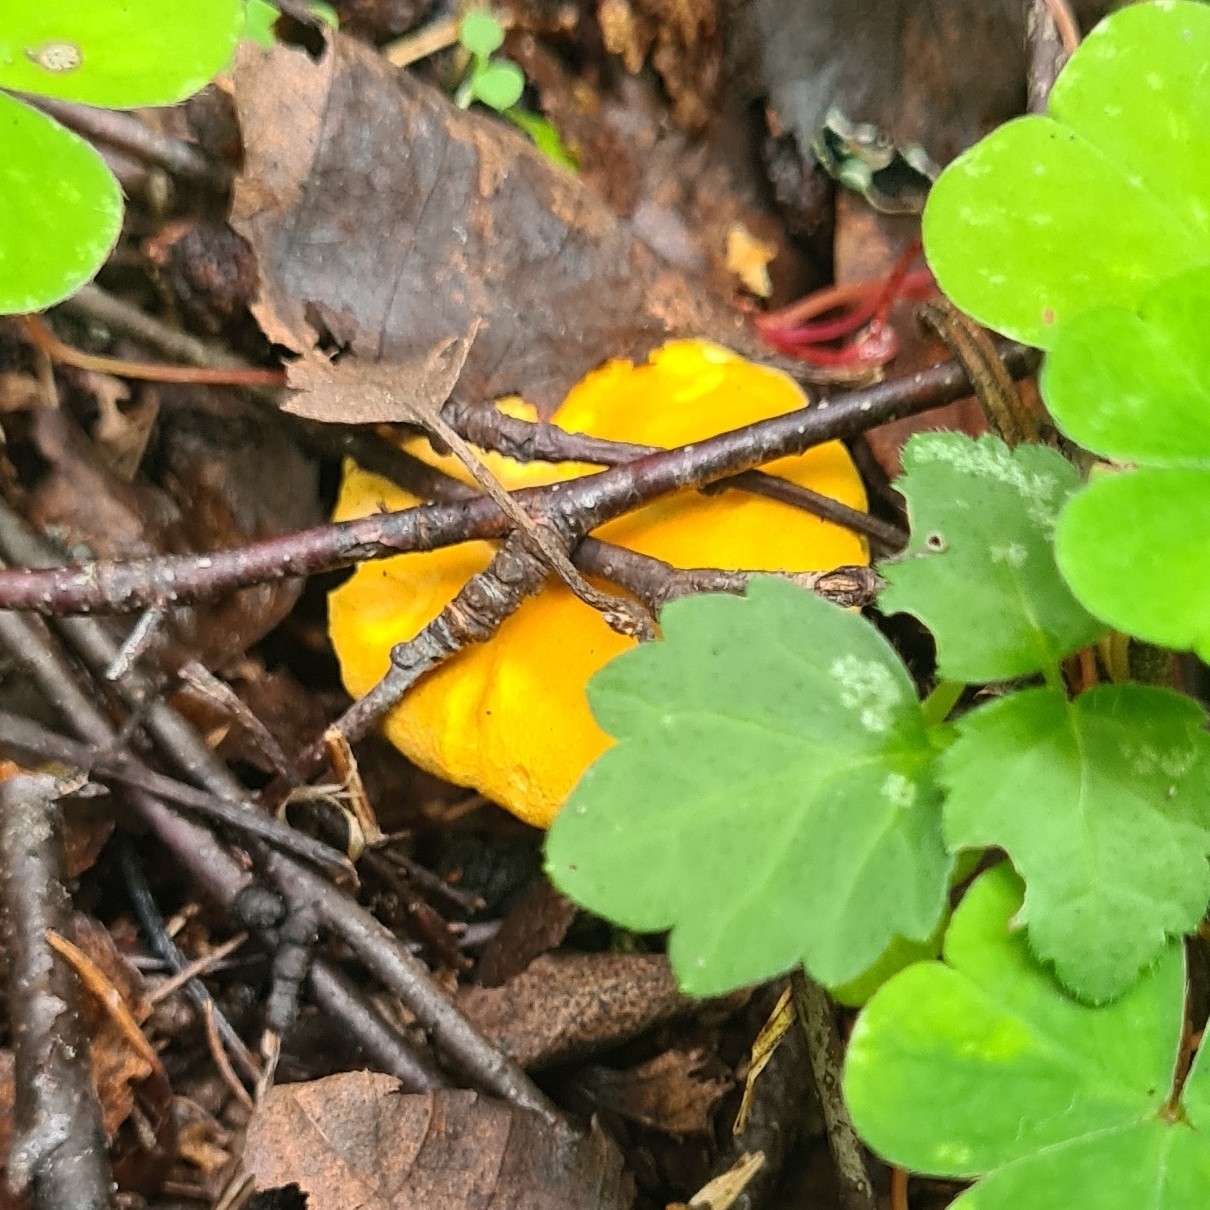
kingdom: Fungi
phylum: Basidiomycota
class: Agaricomycetes
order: Cantharellales
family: Hydnaceae
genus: Cantharellus
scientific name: Cantharellus cibarius
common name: Chanterelle
